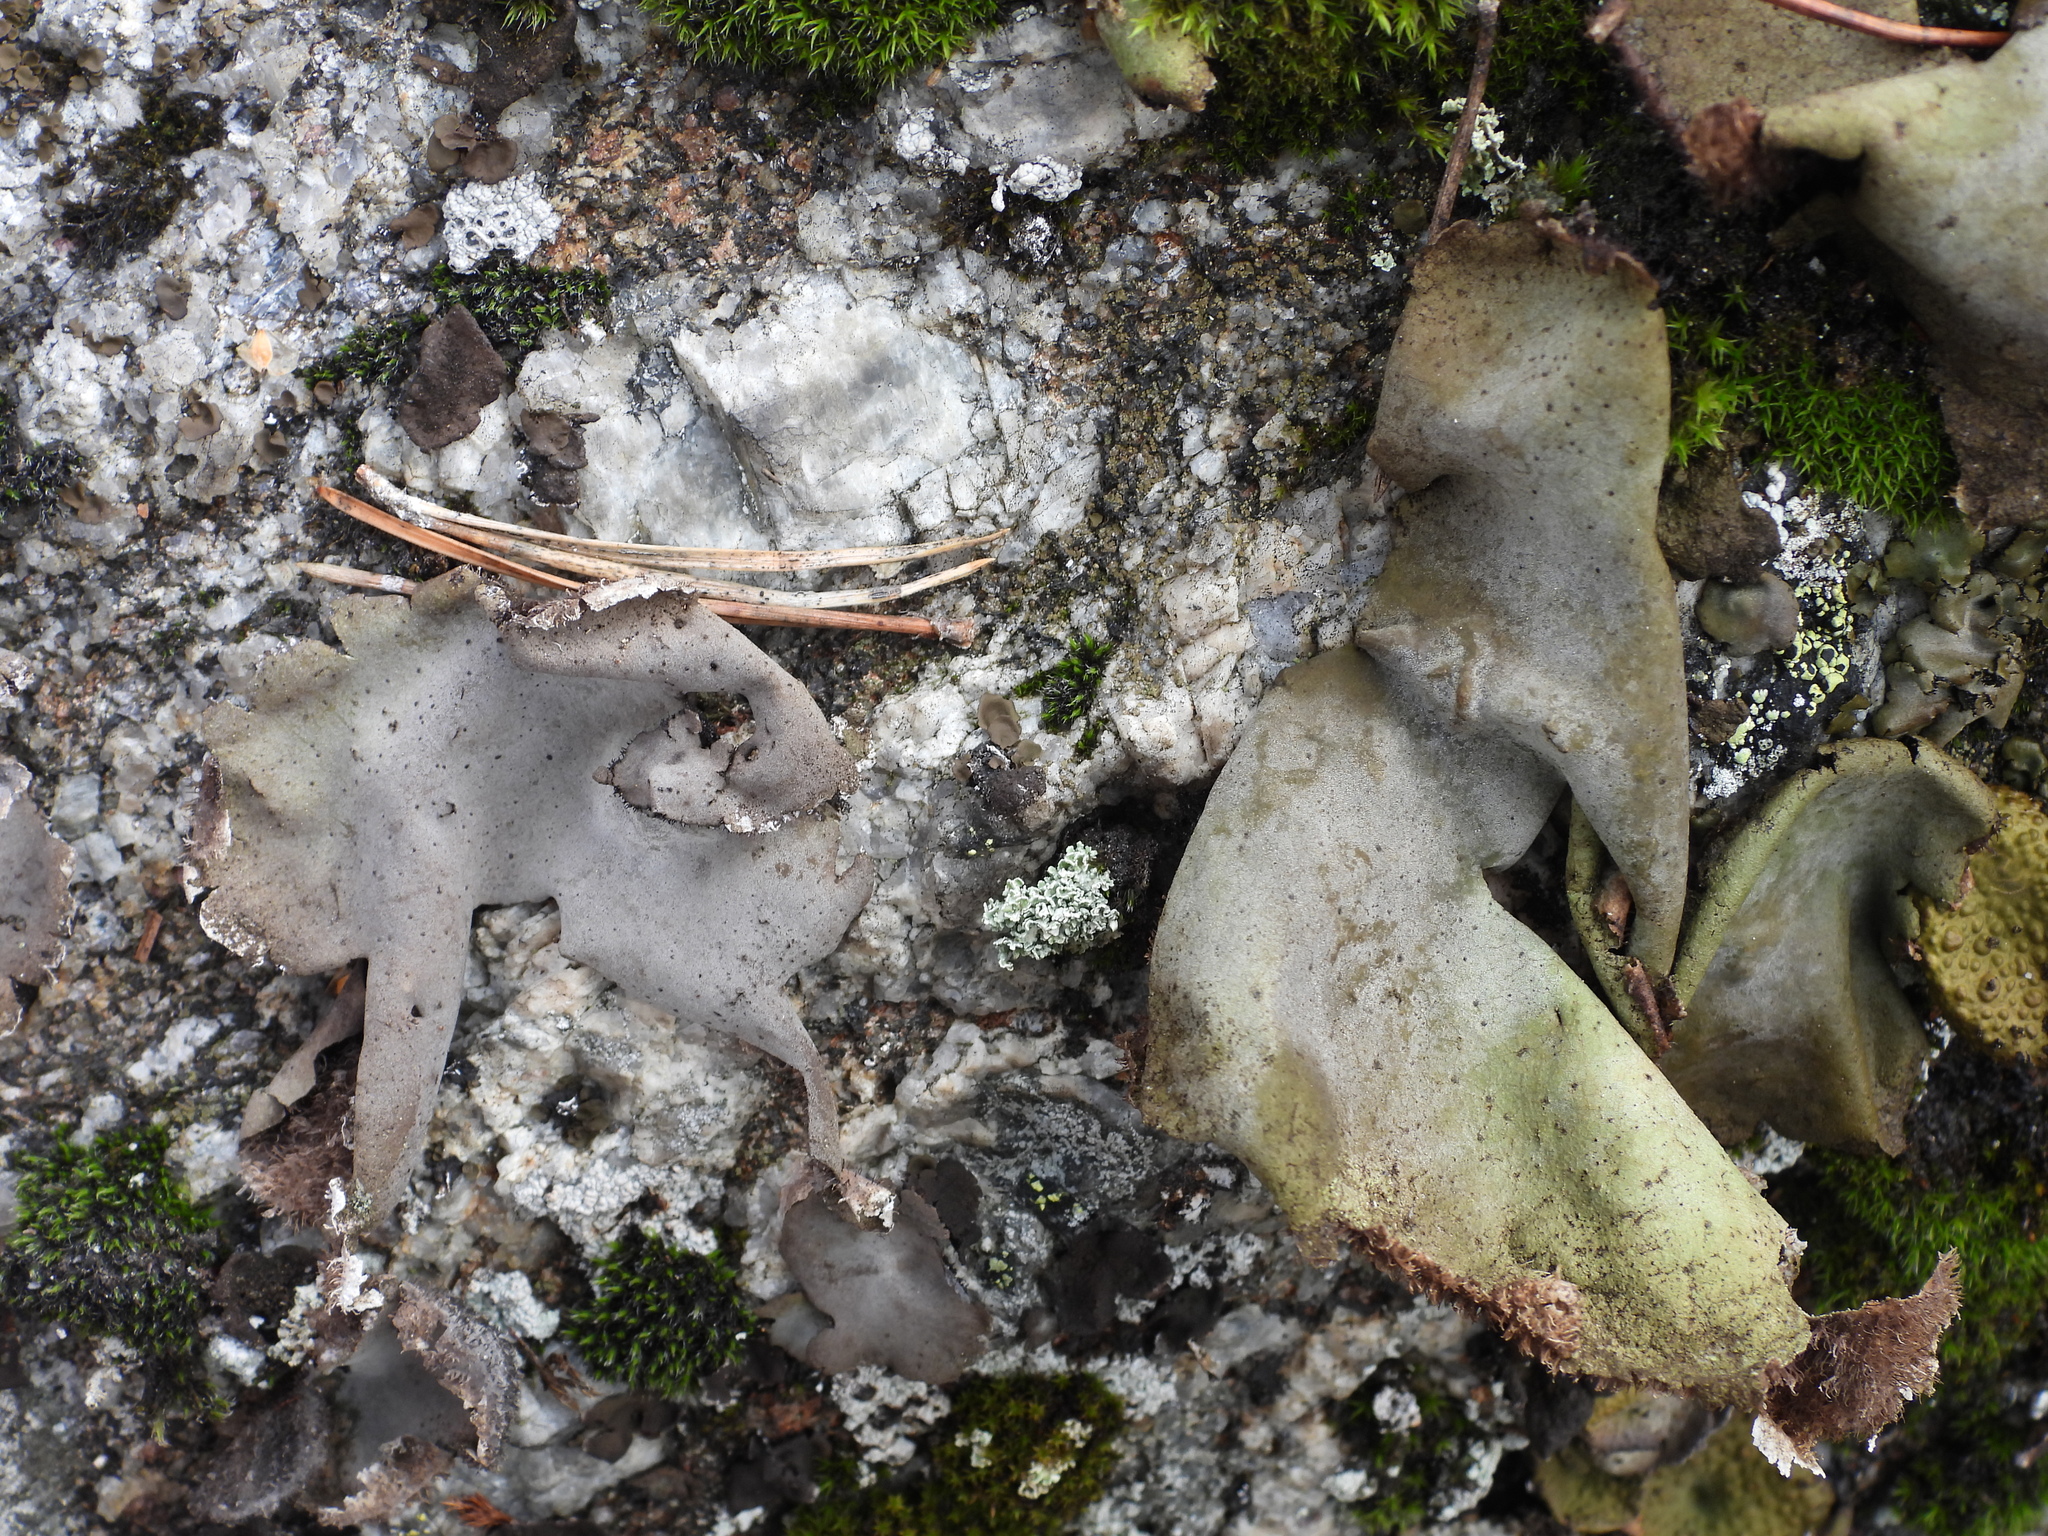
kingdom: Fungi
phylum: Ascomycota
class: Lecanoromycetes
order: Umbilicariales
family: Umbilicariaceae
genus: Umbilicaria
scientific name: Umbilicaria hirsuta
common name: Granulating rocktripe lichen
